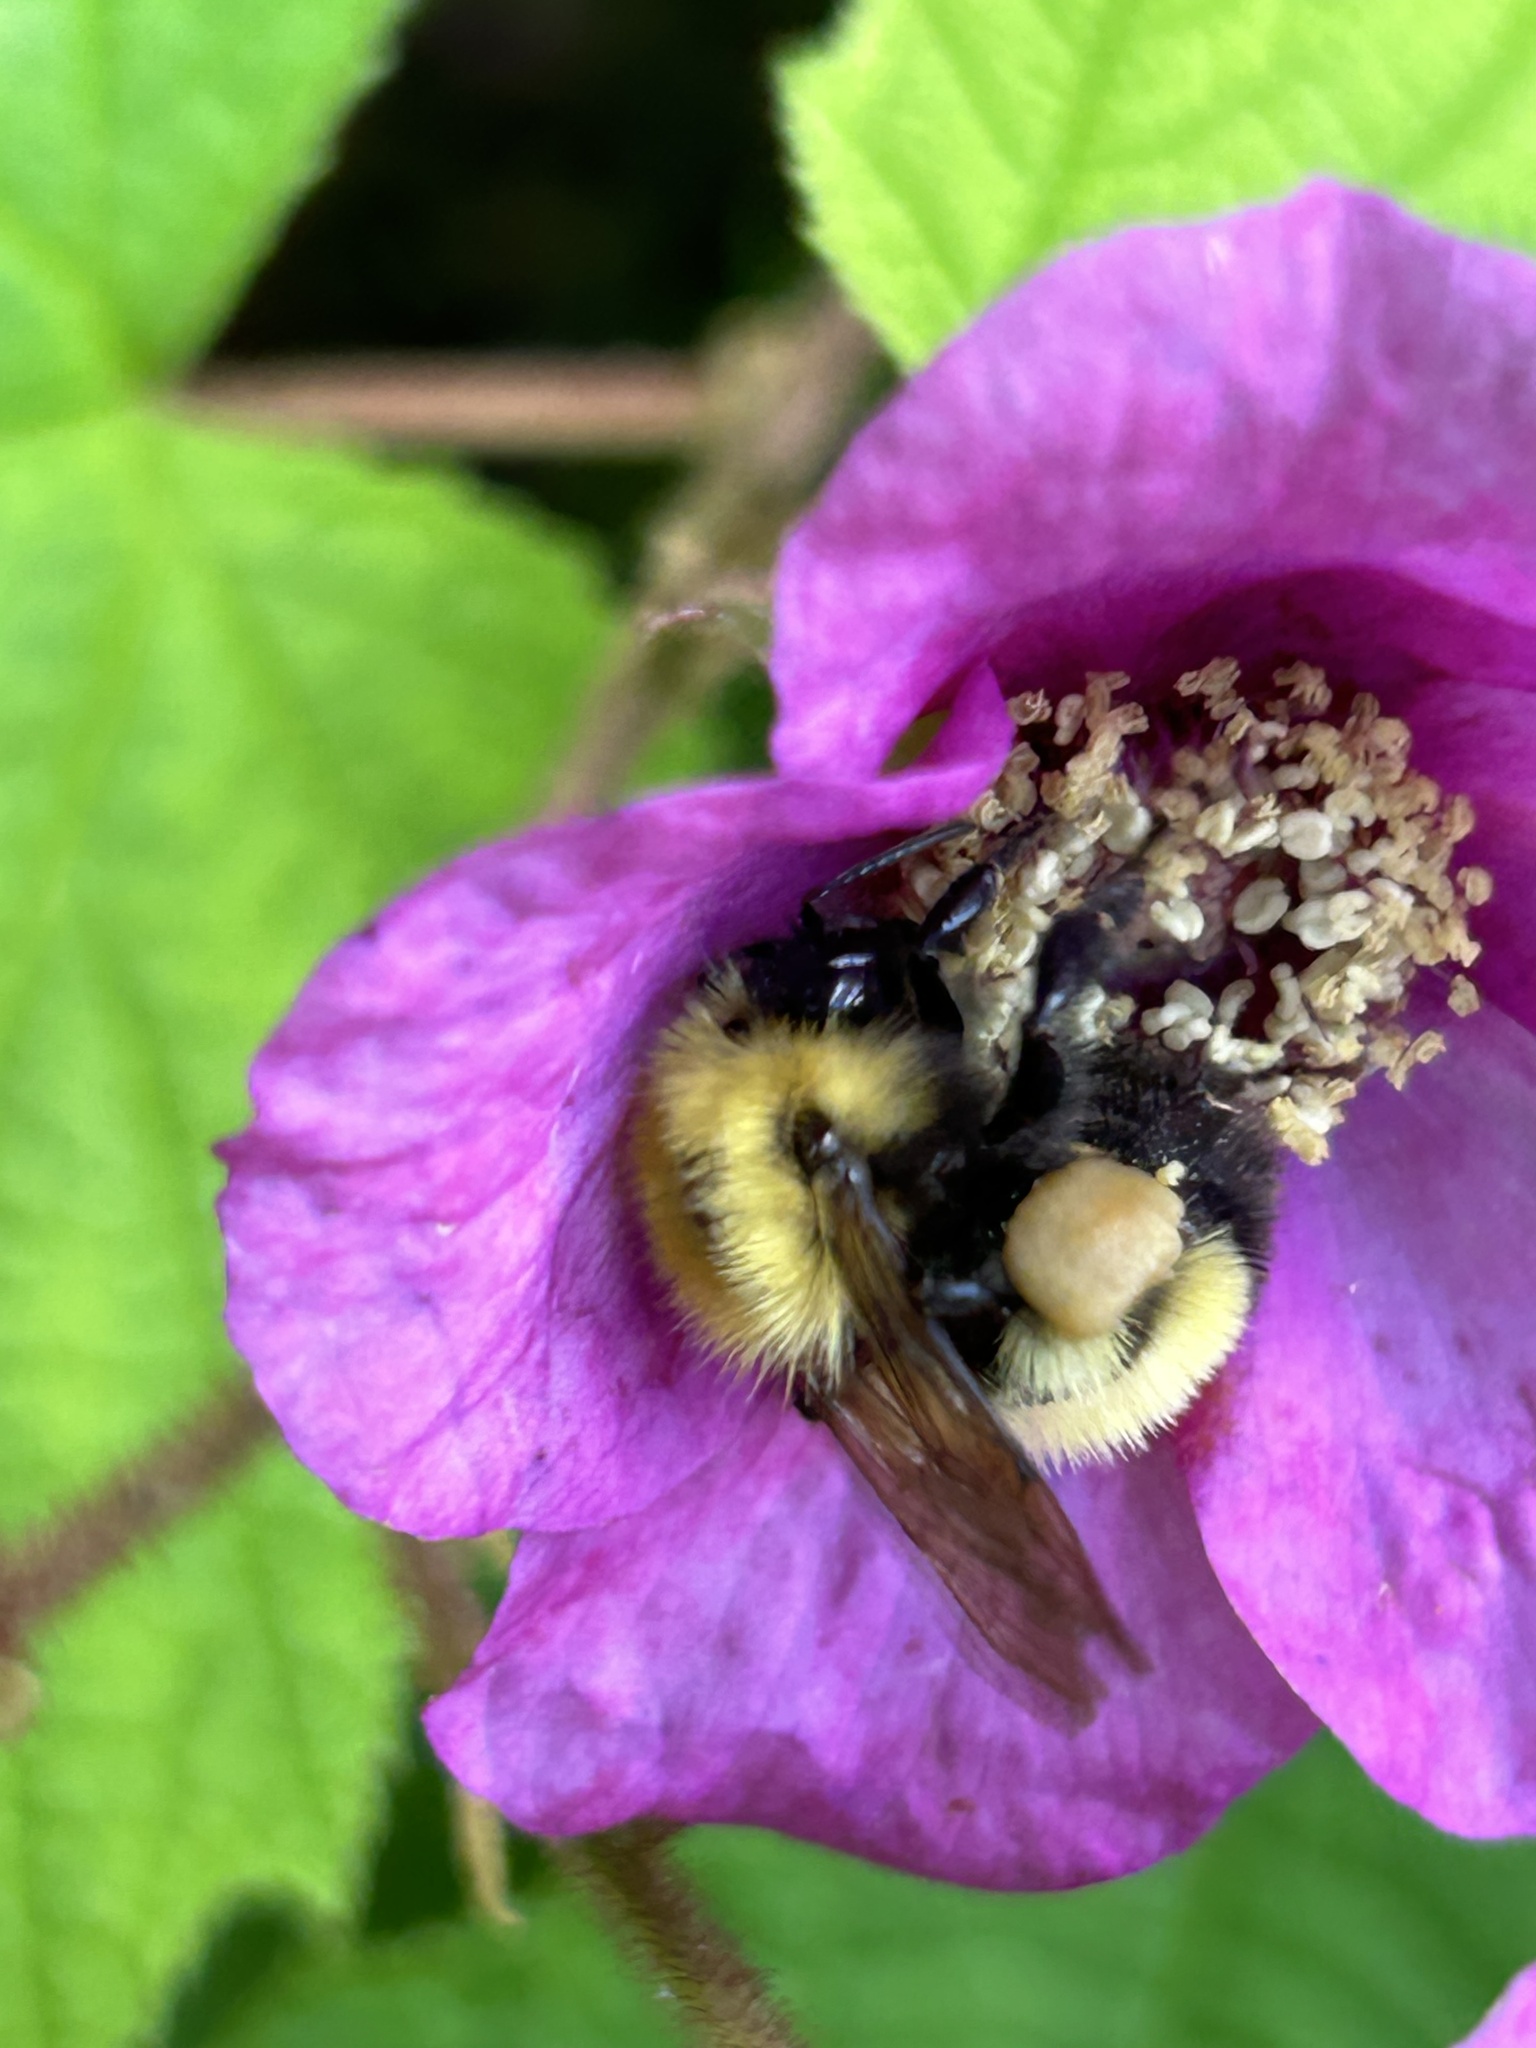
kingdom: Animalia
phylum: Arthropoda
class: Insecta
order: Hymenoptera
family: Apidae
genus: Bombus
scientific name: Bombus perplexus
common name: Confusing bumble bee
